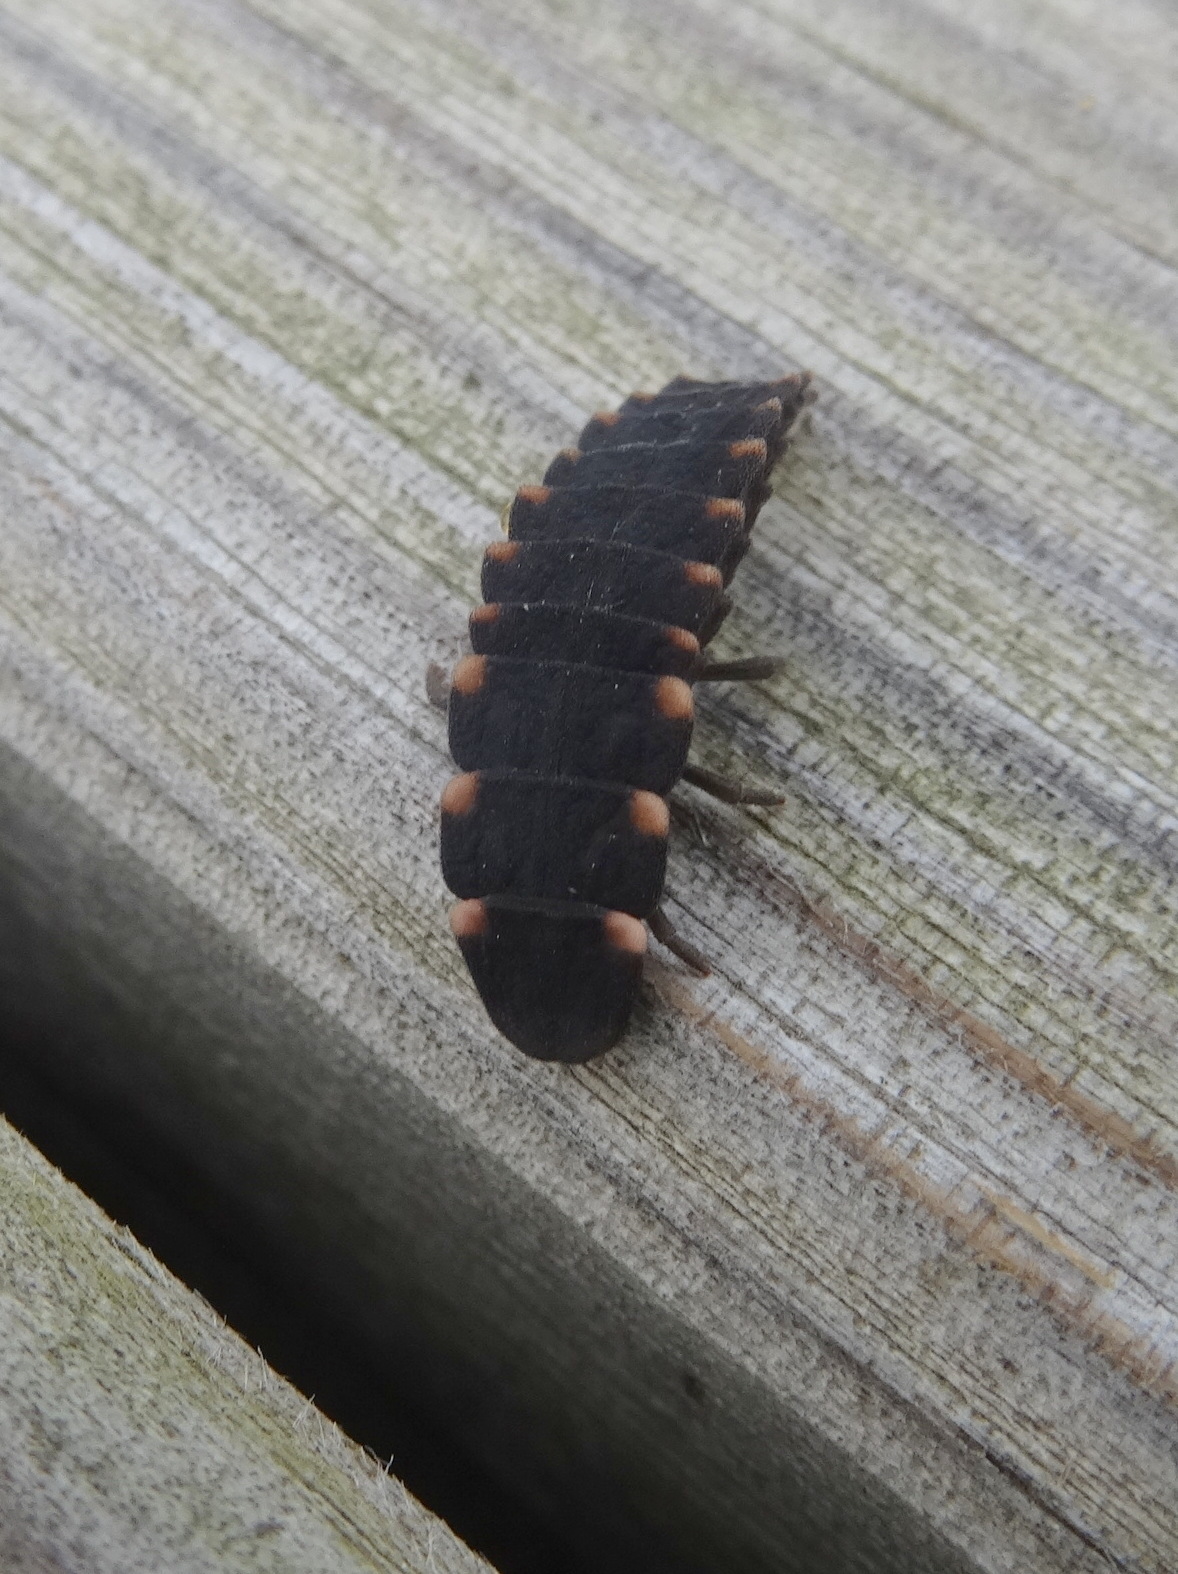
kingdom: Animalia
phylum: Arthropoda
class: Insecta
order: Coleoptera
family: Lampyridae
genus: Lampyris
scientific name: Lampyris noctiluca
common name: Glow-worm
